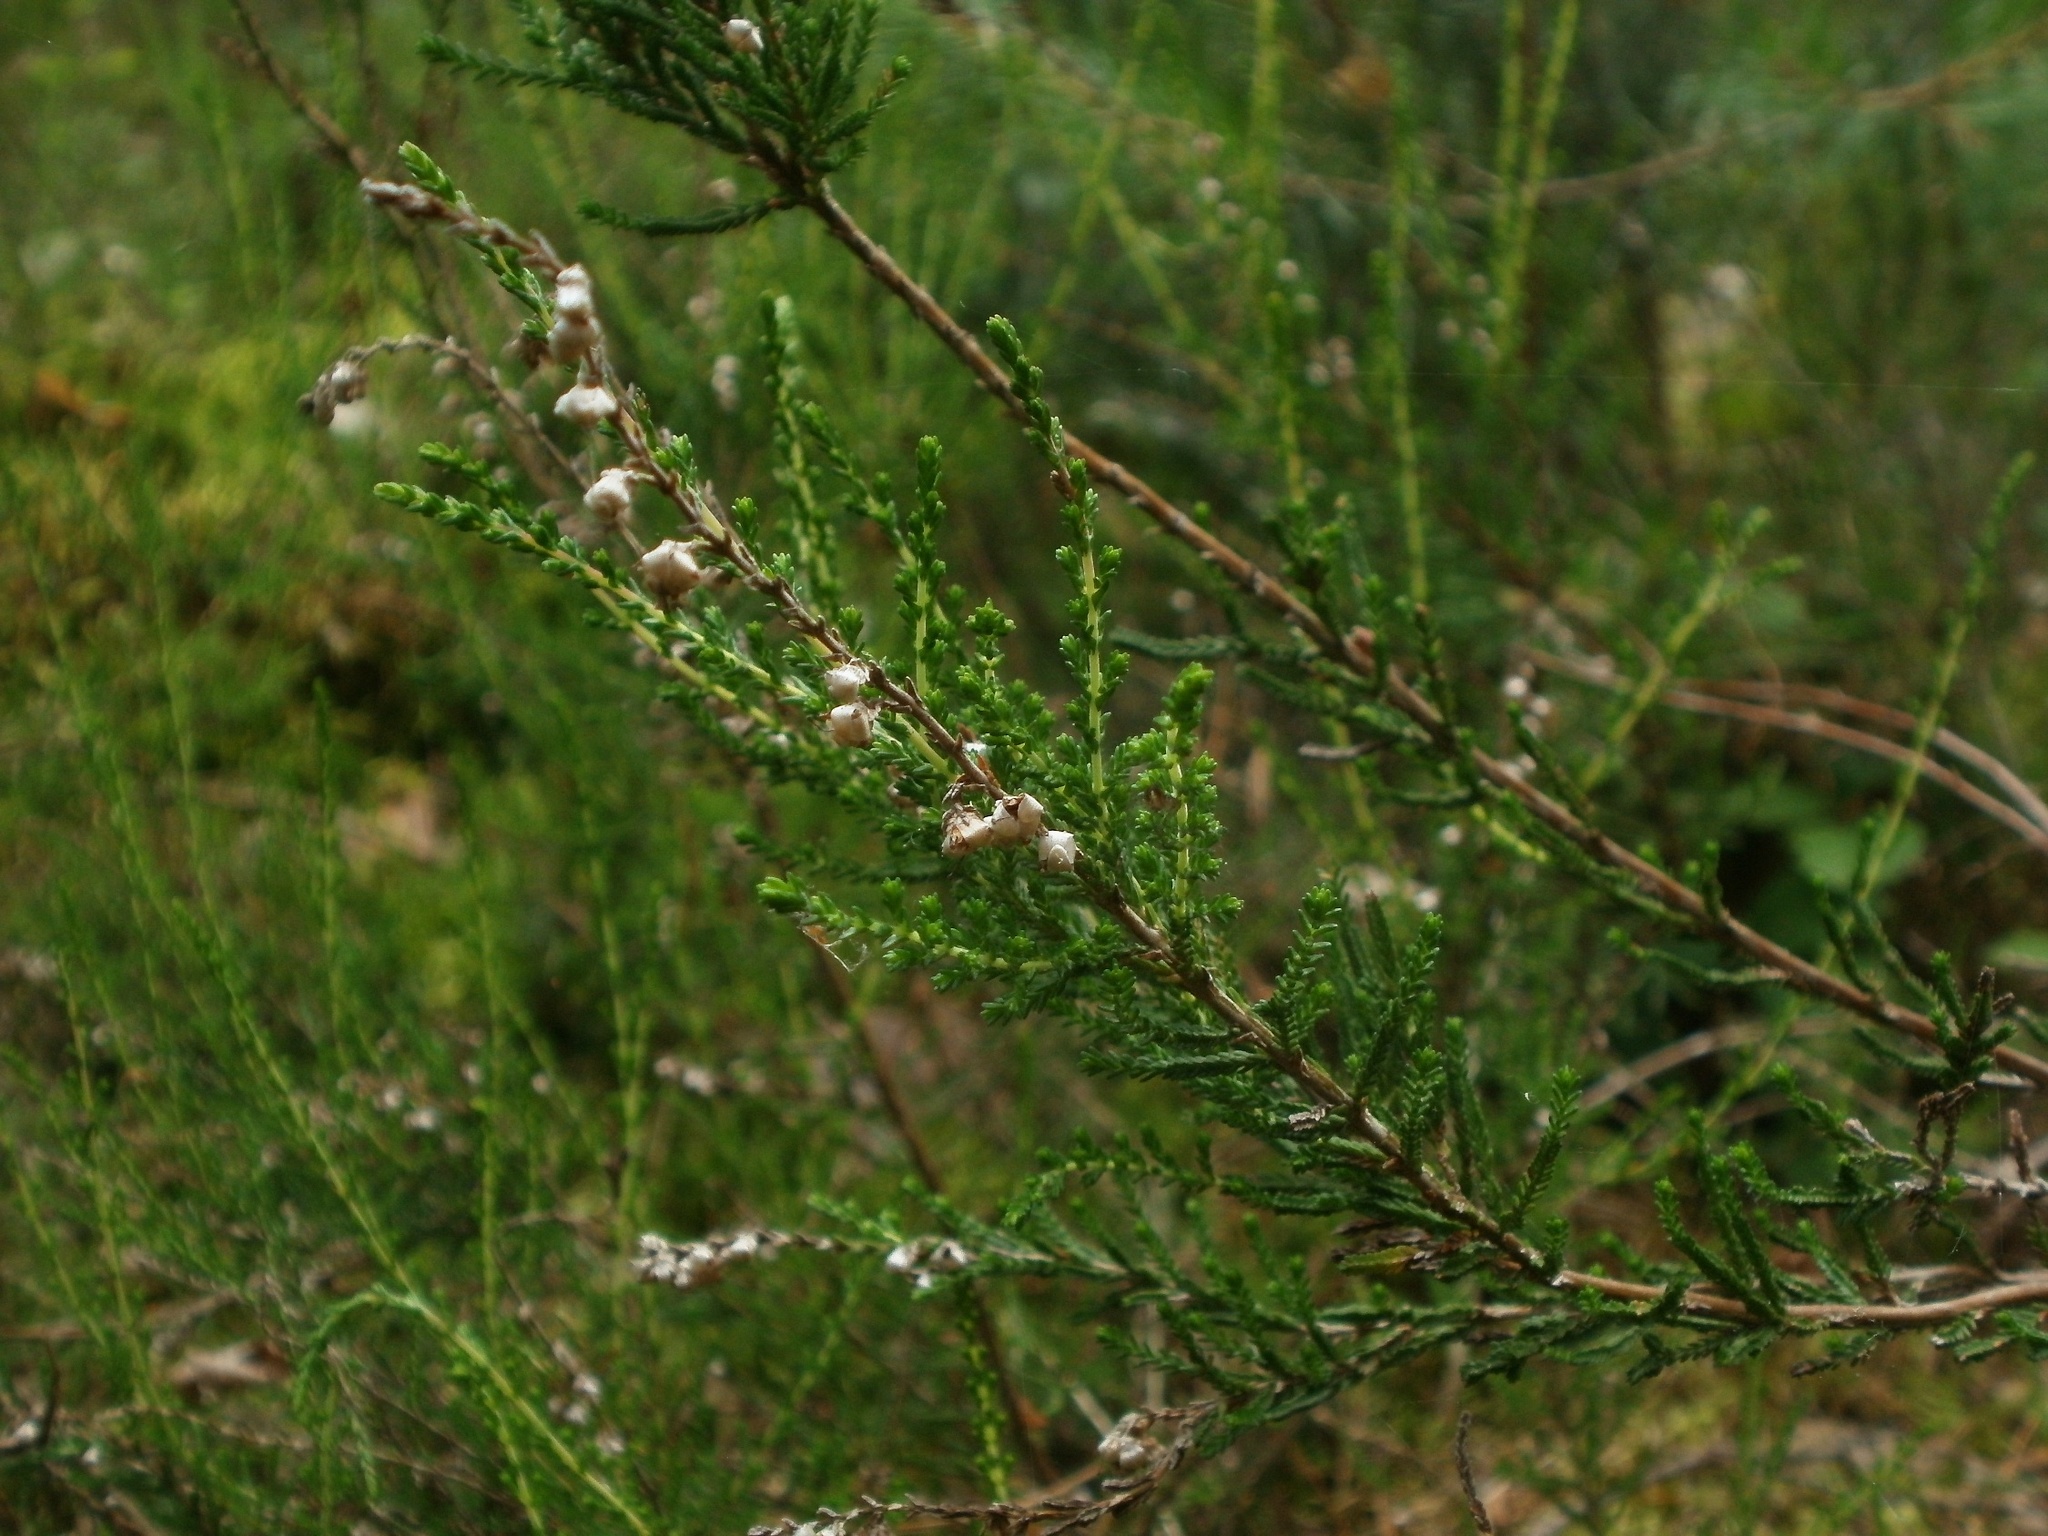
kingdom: Plantae
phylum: Tracheophyta
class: Magnoliopsida
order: Ericales
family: Ericaceae
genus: Calluna
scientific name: Calluna vulgaris
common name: Heather
